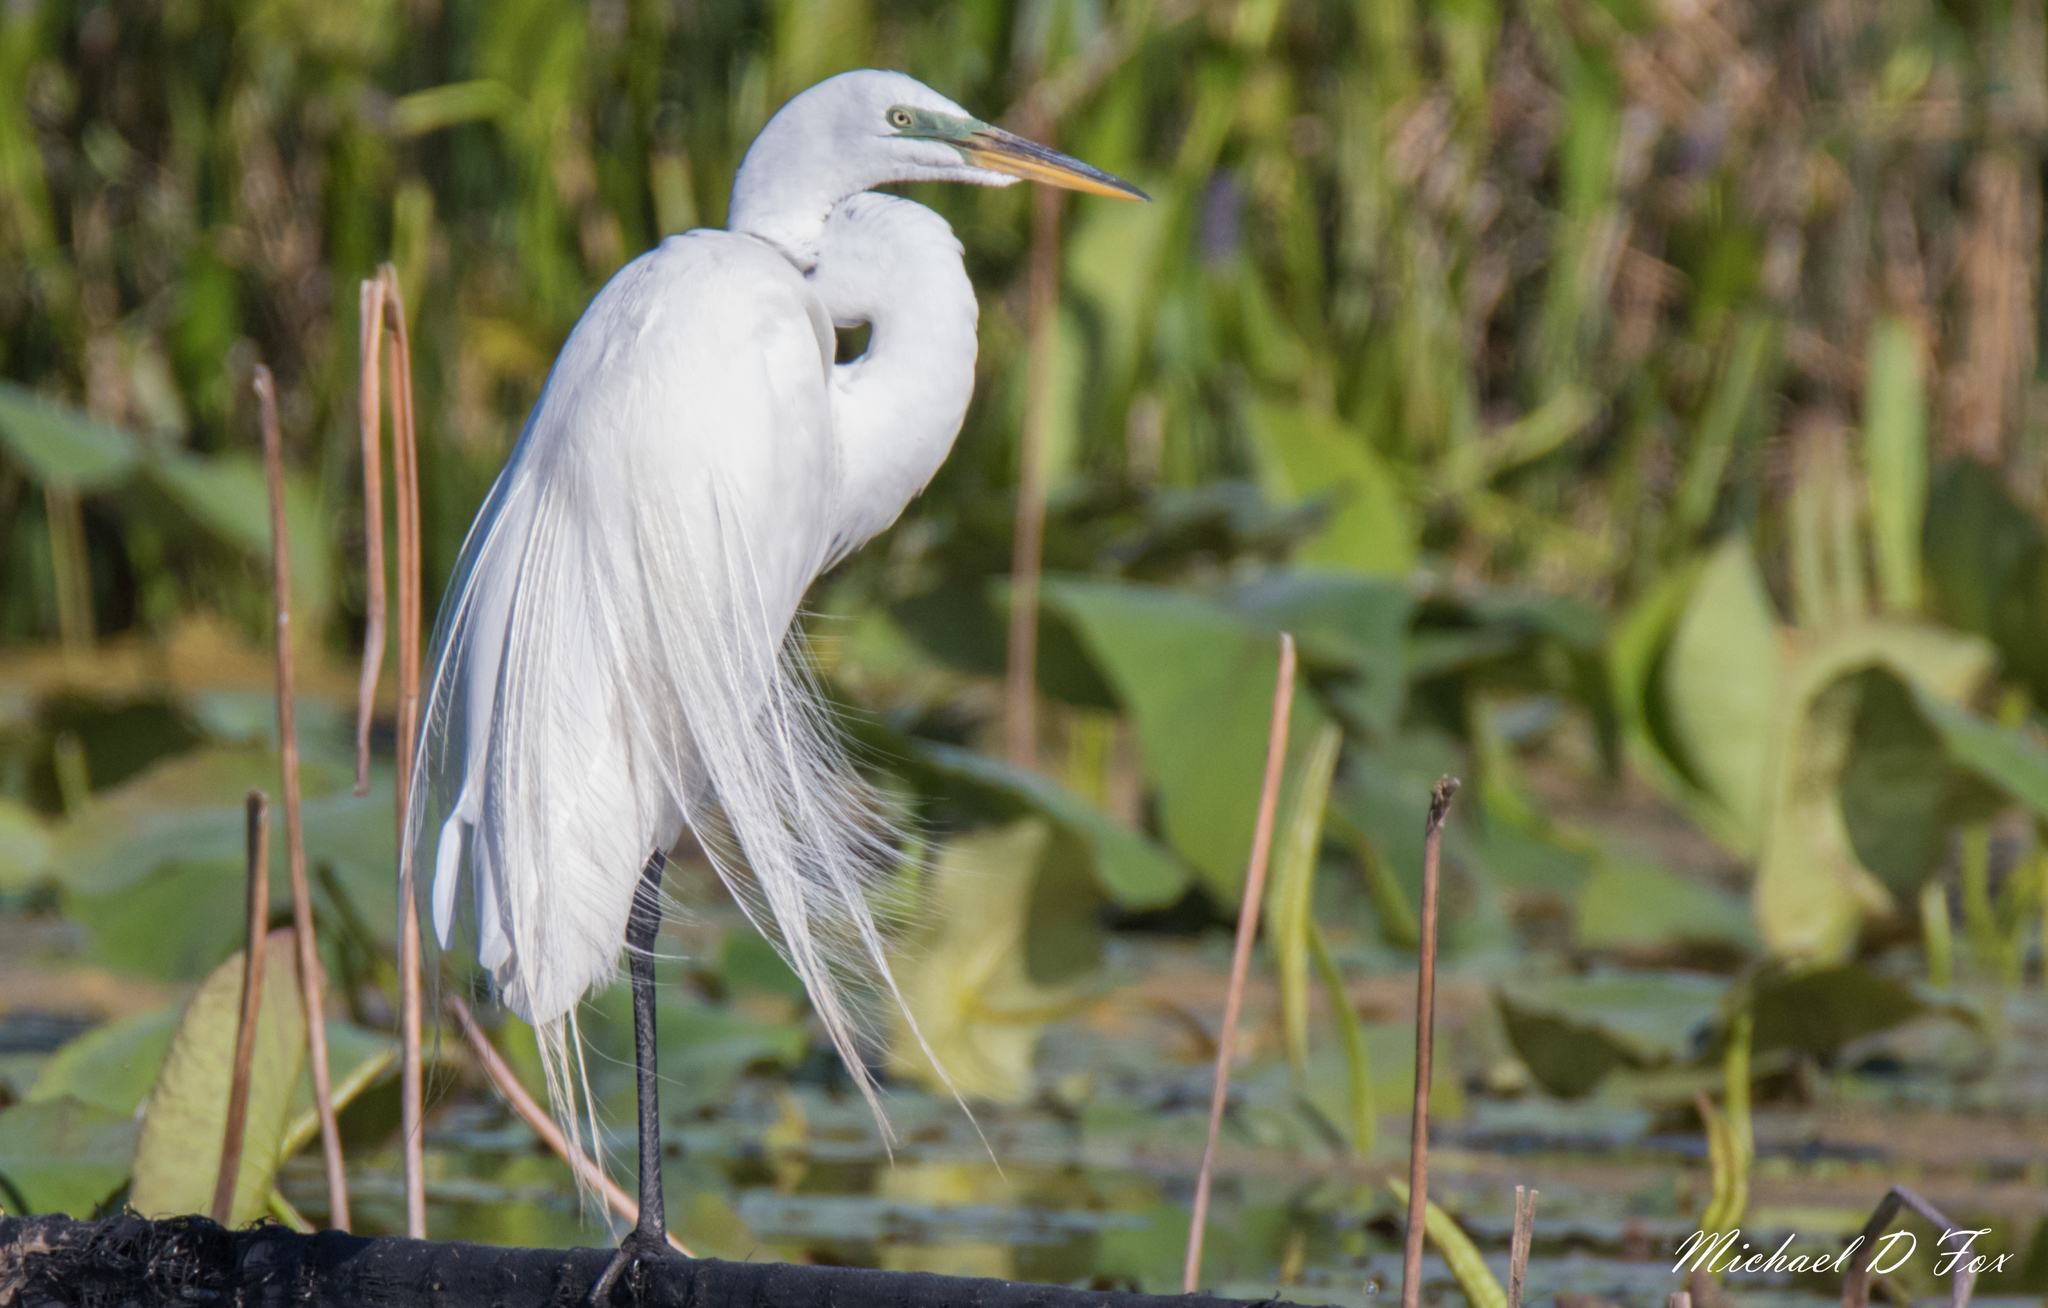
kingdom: Animalia
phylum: Chordata
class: Aves
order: Pelecaniformes
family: Ardeidae
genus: Ardea
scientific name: Ardea alba
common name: Great egret
